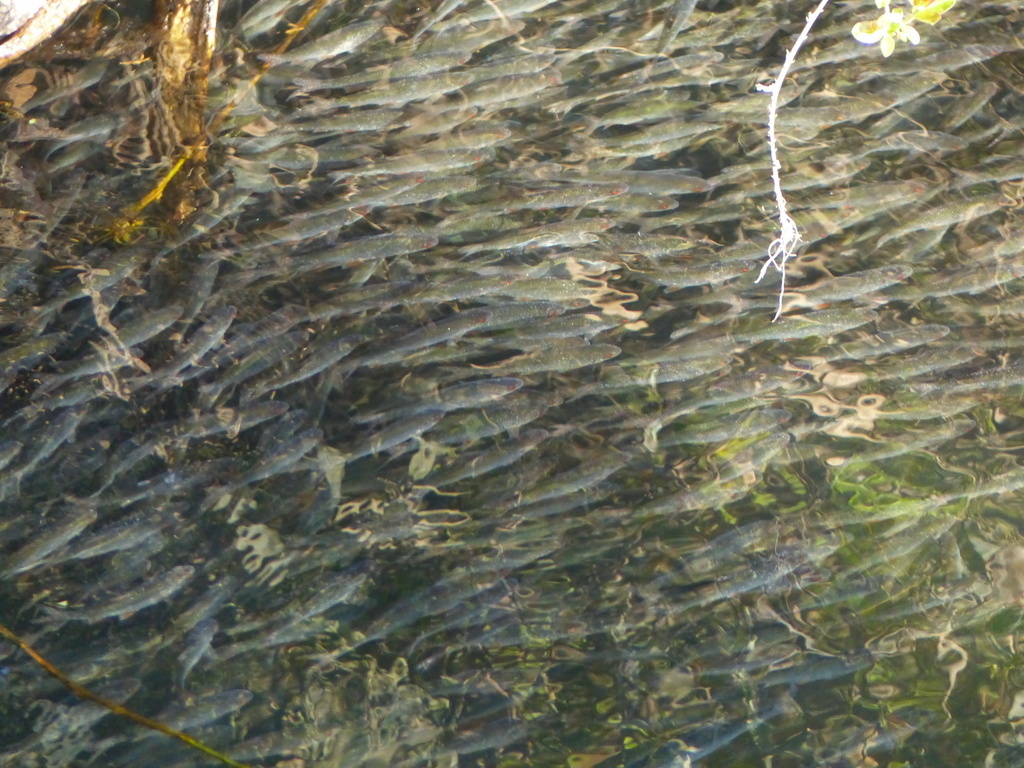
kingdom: Animalia
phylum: Chordata
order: Cypriniformes
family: Cyprinidae
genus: Rutilus
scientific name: Rutilus rutilus
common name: Roach
